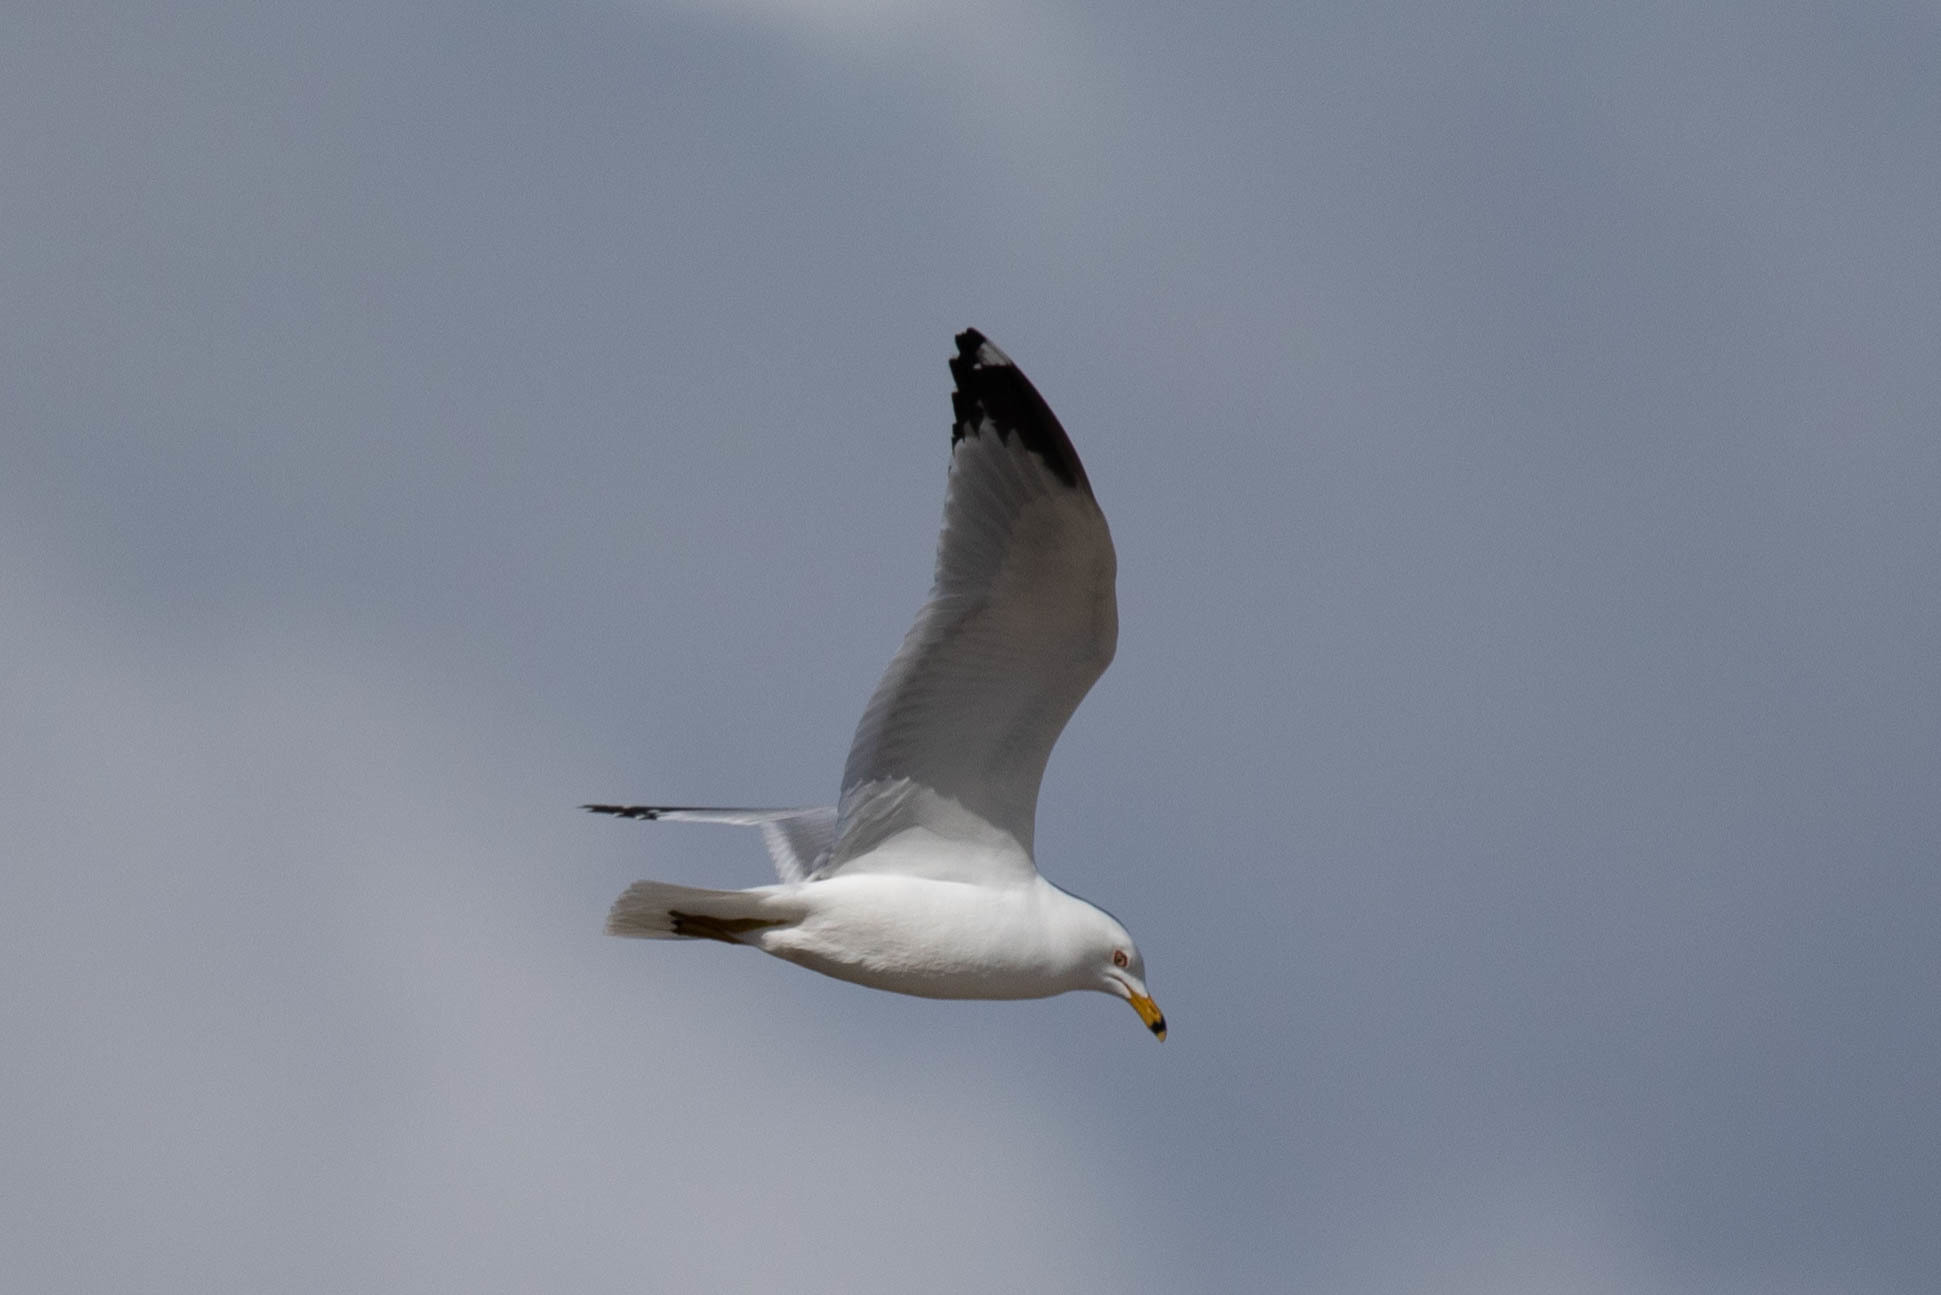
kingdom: Animalia
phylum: Chordata
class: Aves
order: Charadriiformes
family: Laridae
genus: Larus
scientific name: Larus delawarensis
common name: Ring-billed gull
